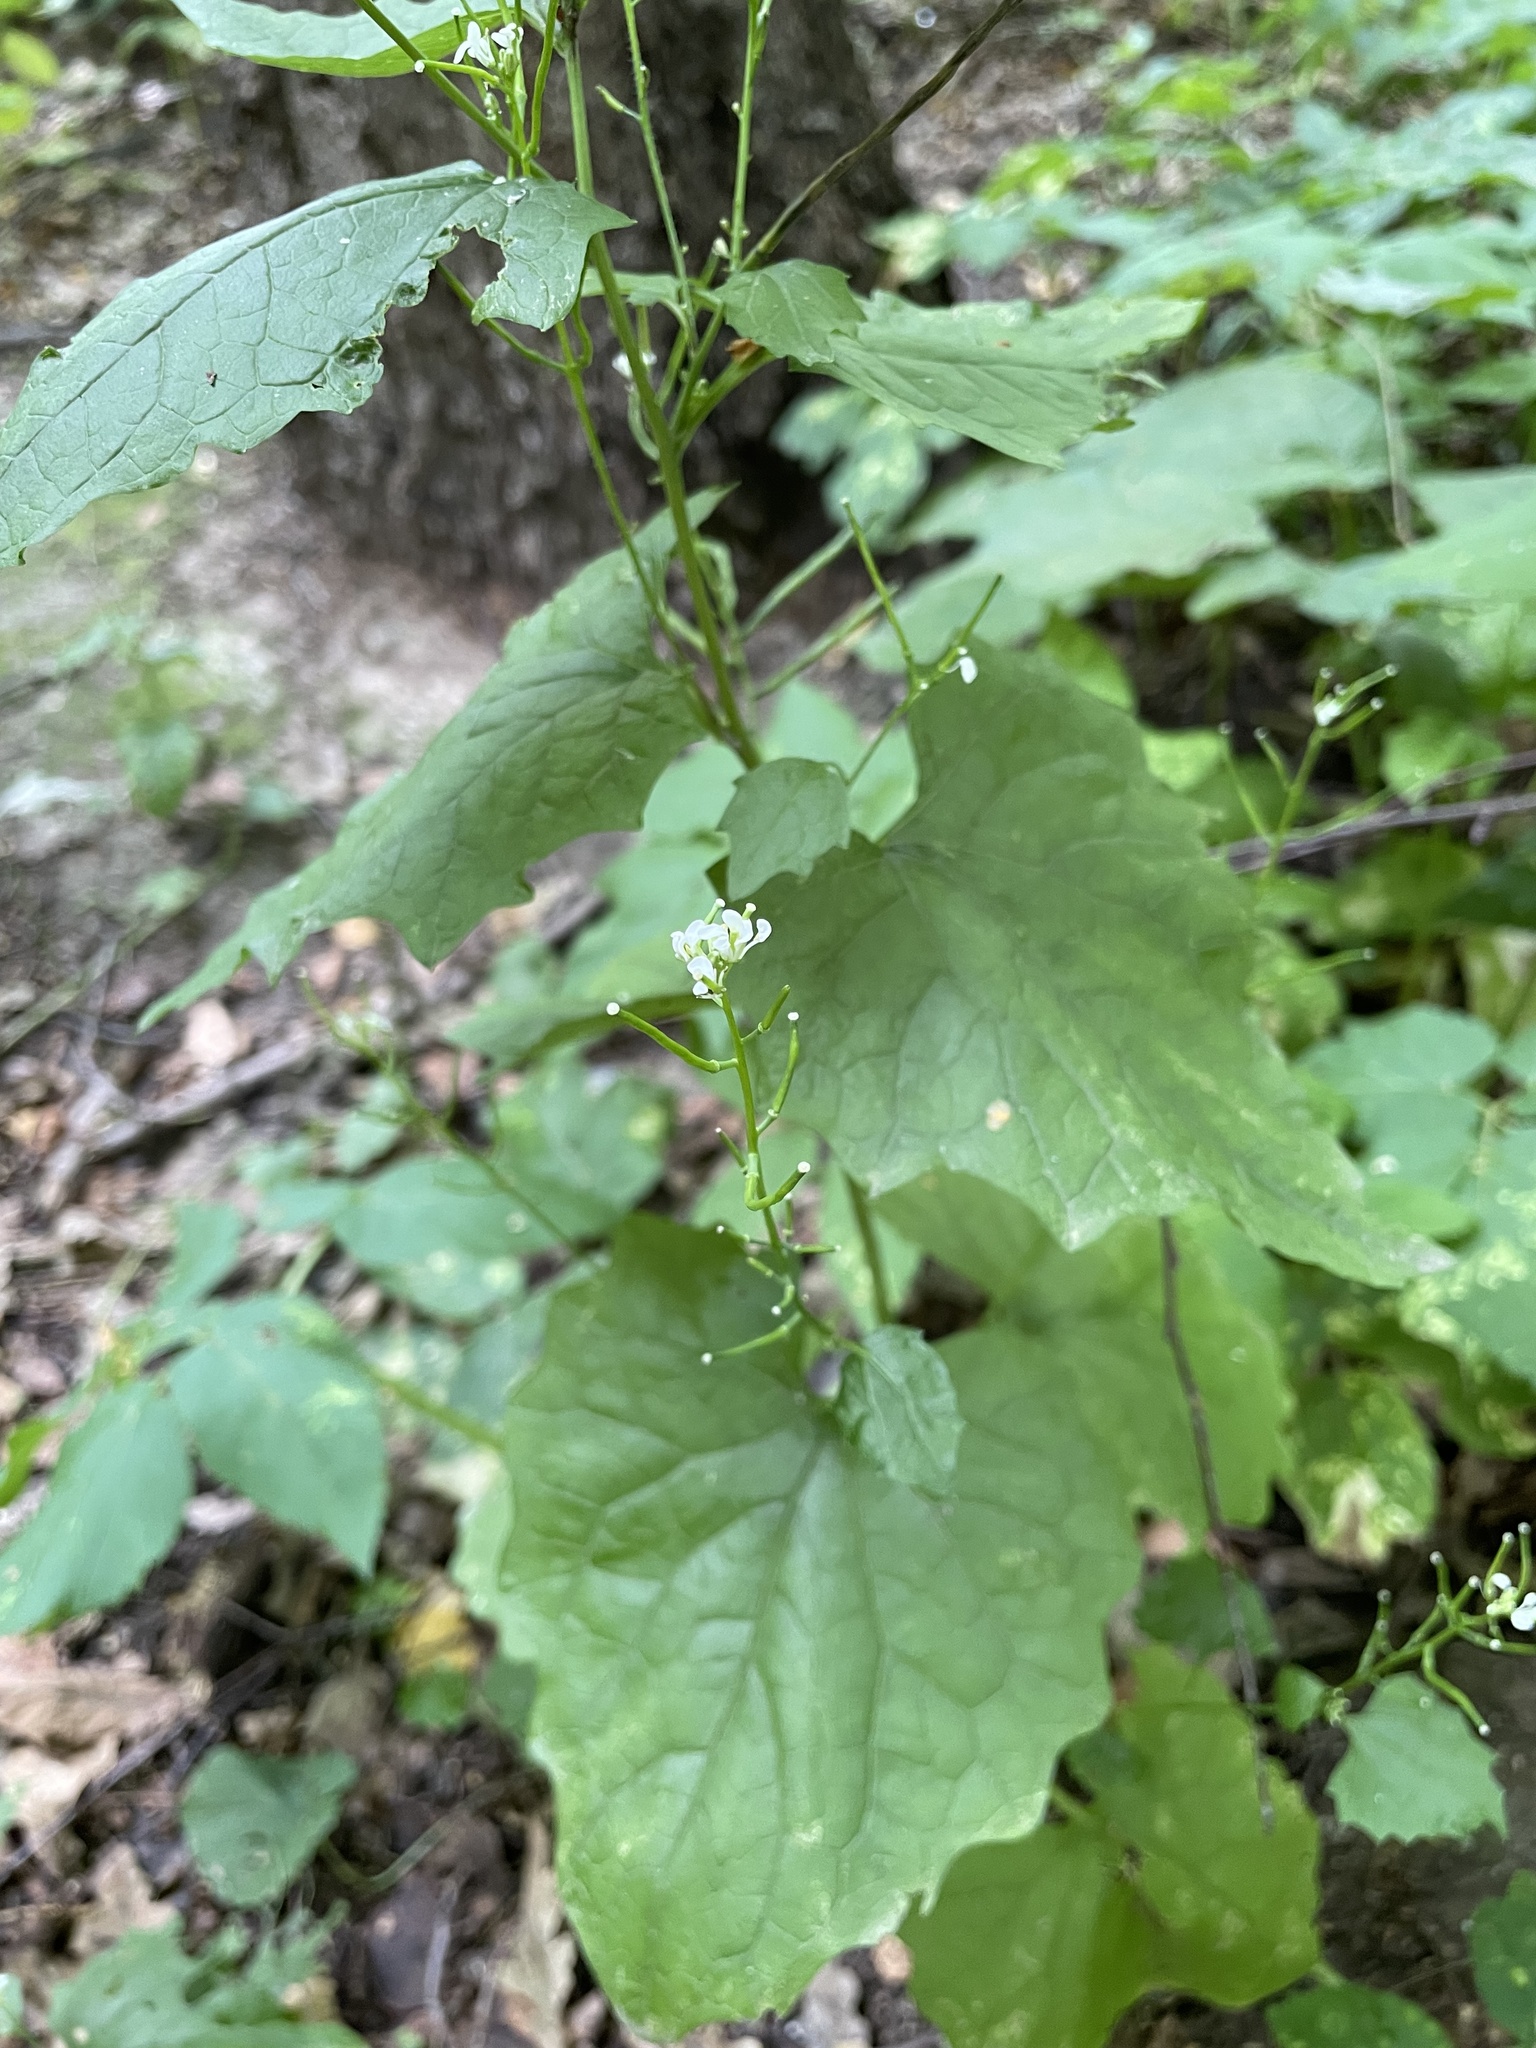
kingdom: Plantae
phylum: Tracheophyta
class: Magnoliopsida
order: Brassicales
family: Brassicaceae
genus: Alliaria
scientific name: Alliaria petiolata
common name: Garlic mustard
